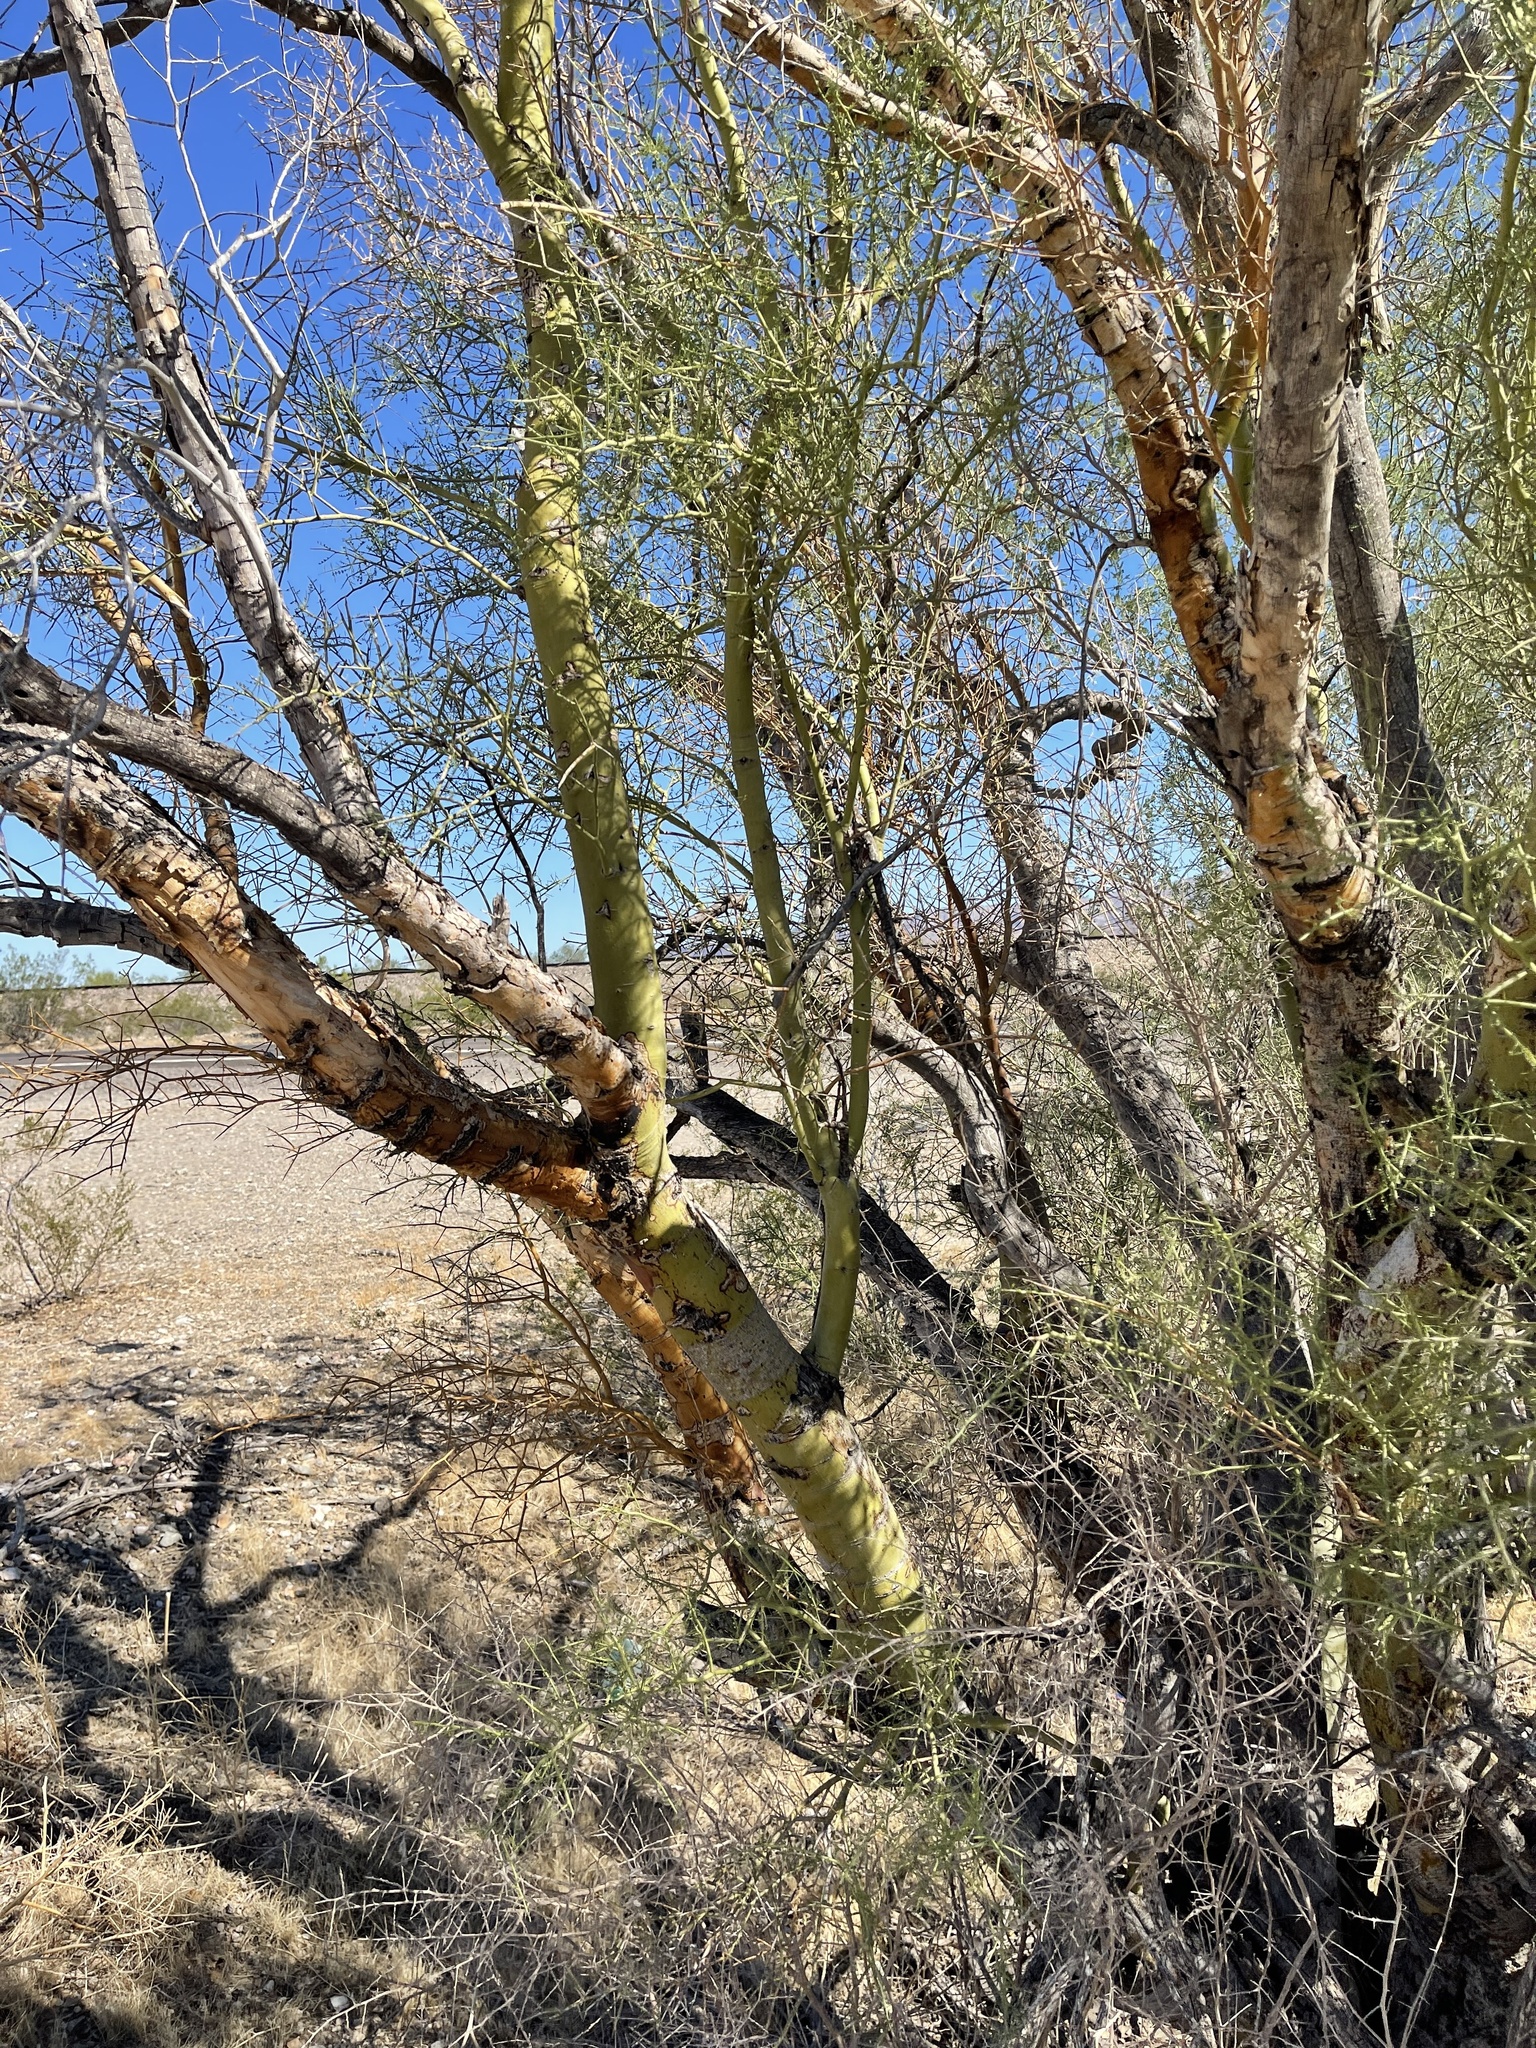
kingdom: Plantae
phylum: Tracheophyta
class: Magnoliopsida
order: Fabales
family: Fabaceae
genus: Parkinsonia
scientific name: Parkinsonia microphylla
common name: Yellow paloverde
